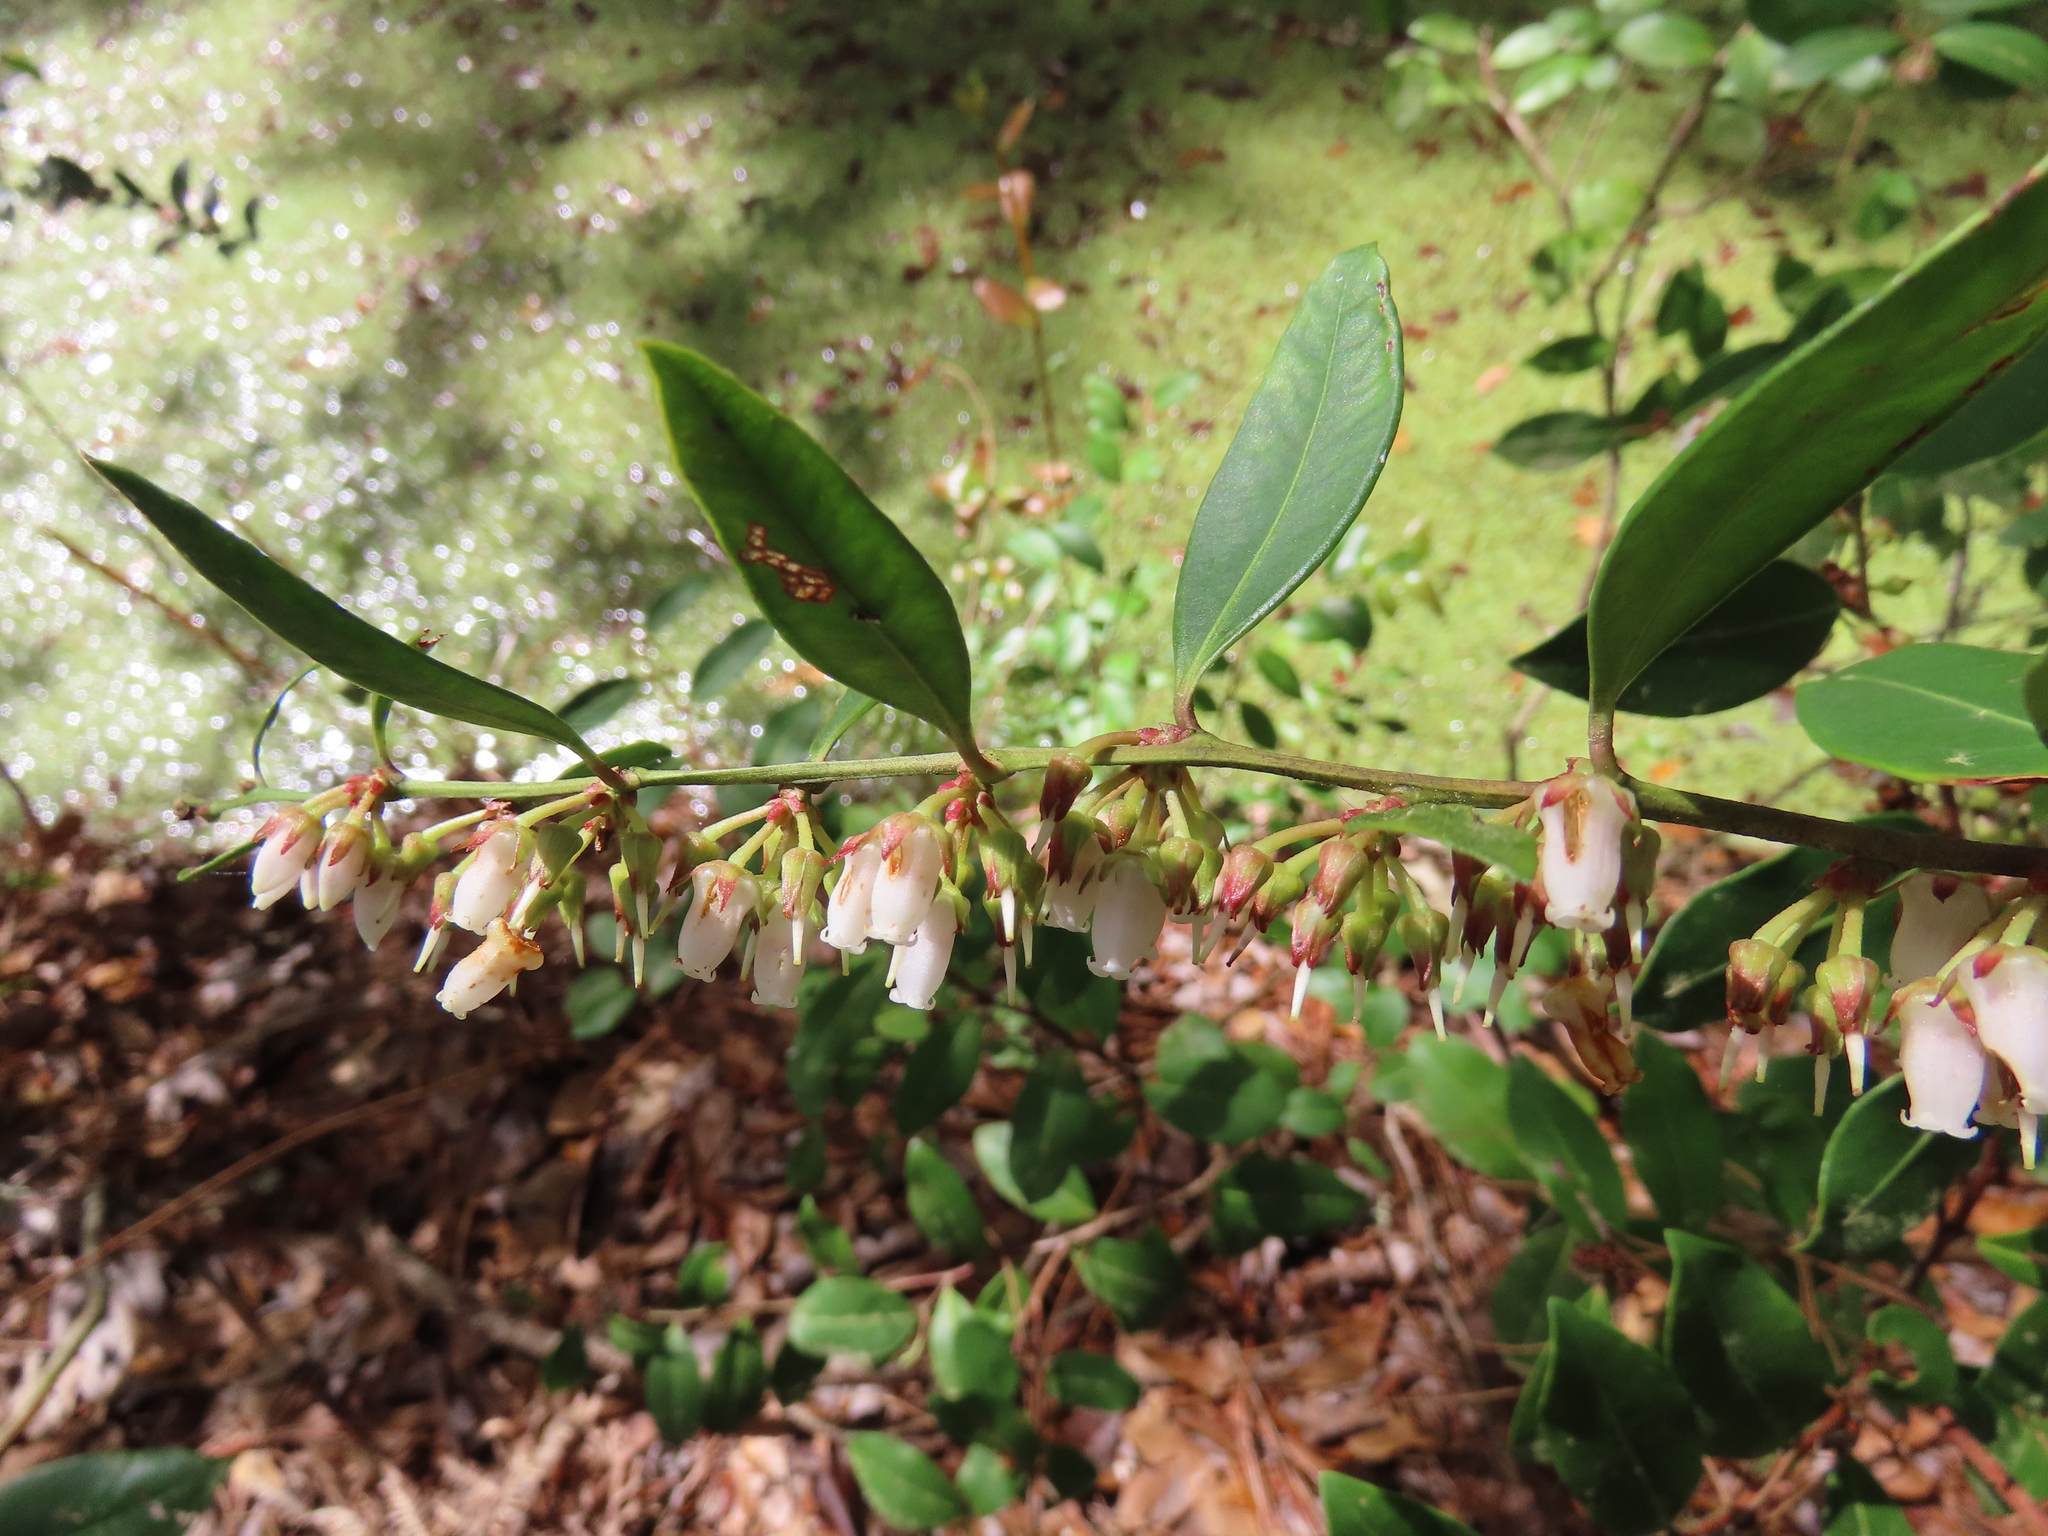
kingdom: Plantae
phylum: Tracheophyta
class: Magnoliopsida
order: Ericales
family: Ericaceae
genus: Lyonia
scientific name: Lyonia lucida
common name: Fetterbush
